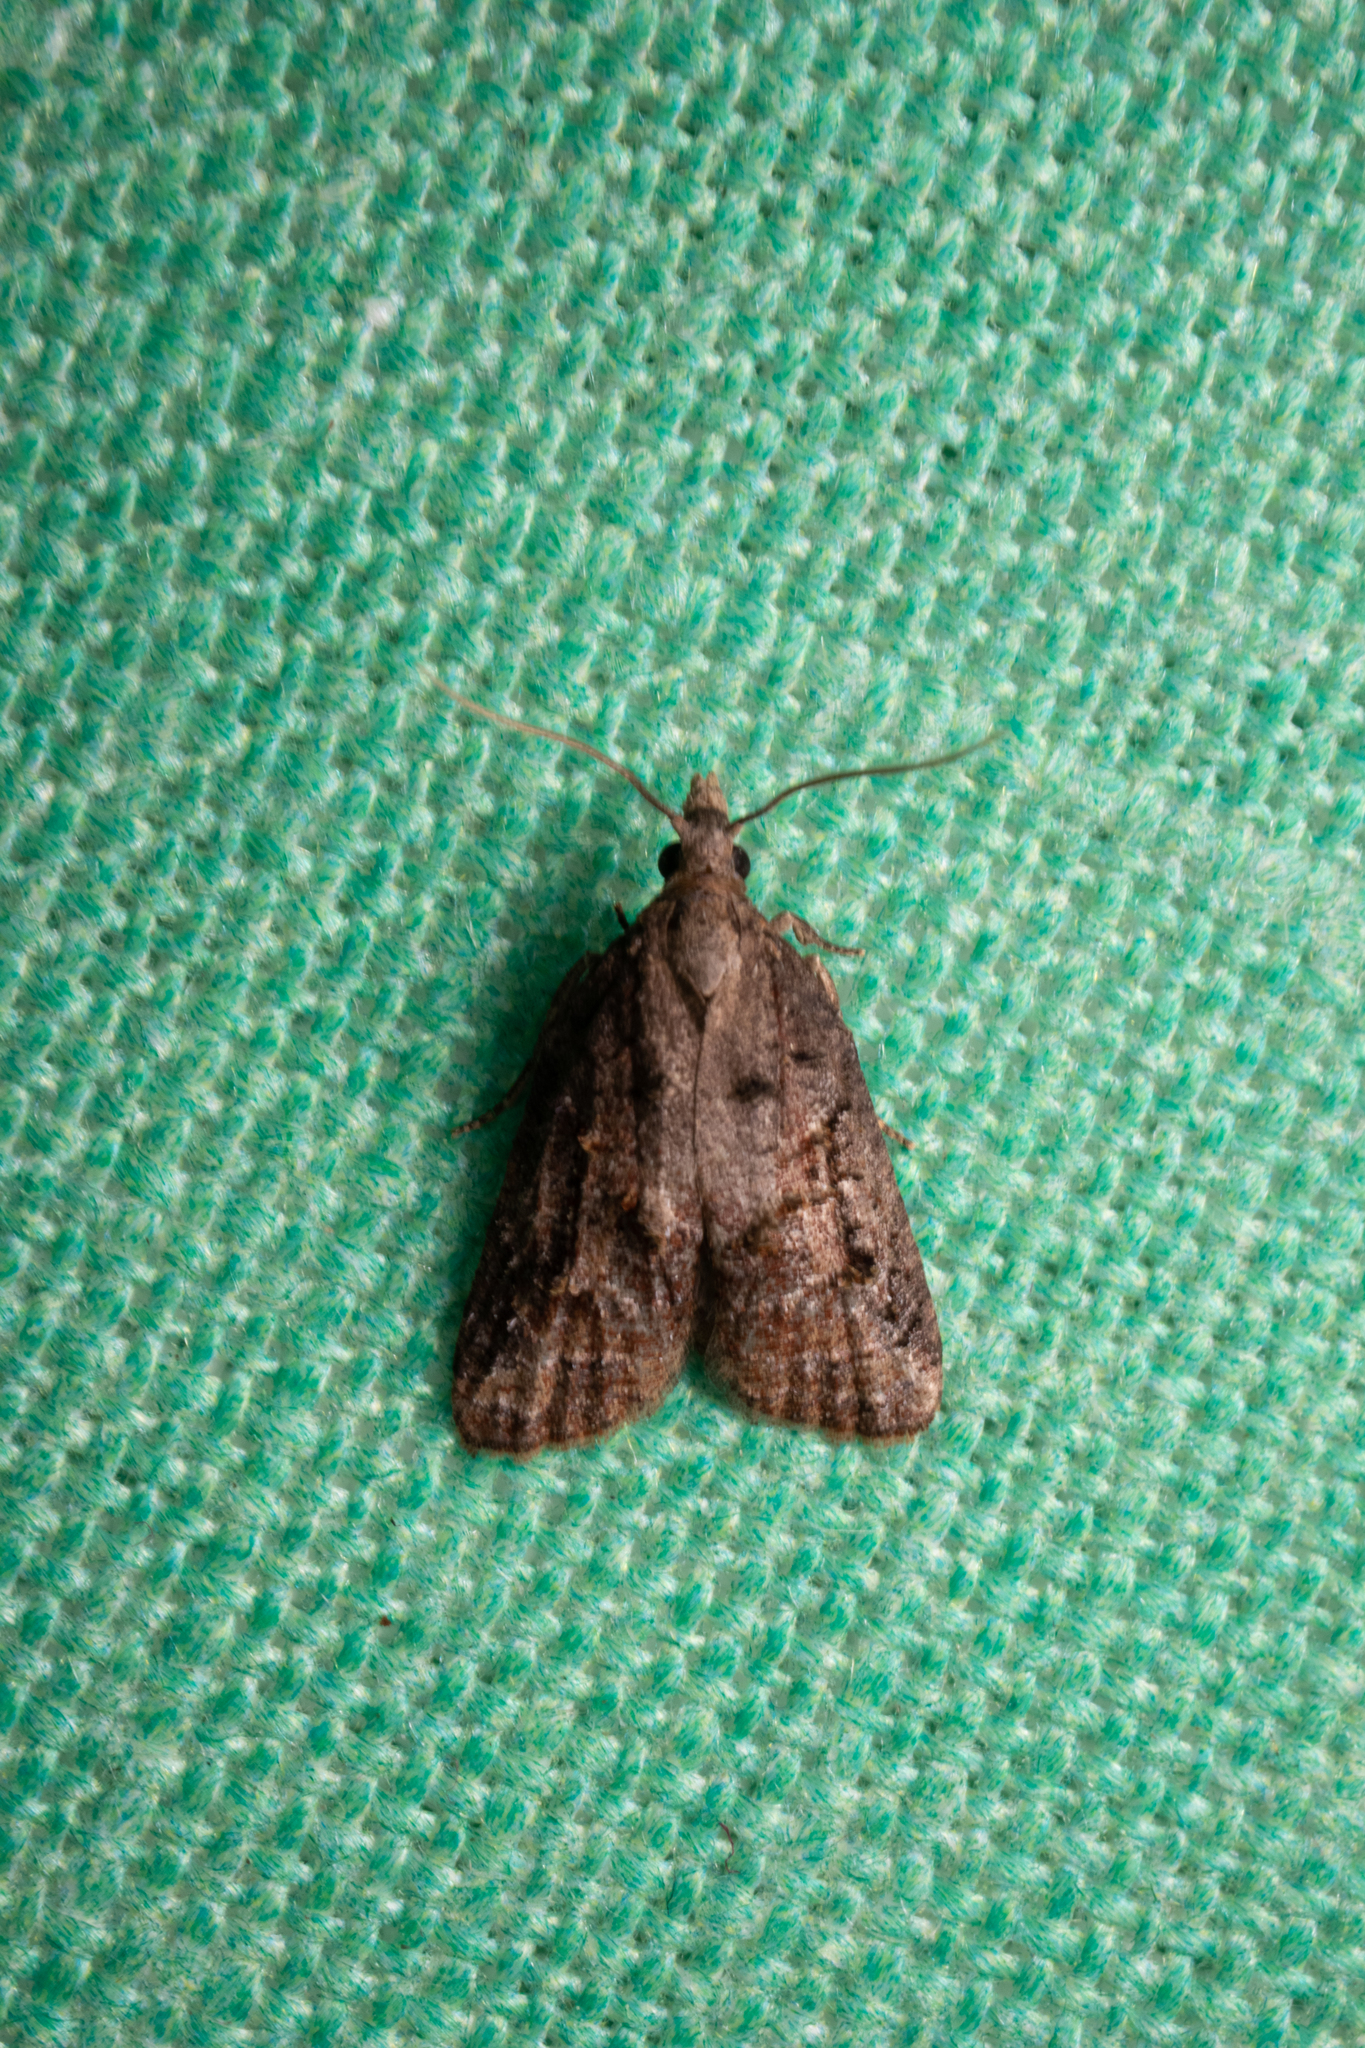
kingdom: Animalia
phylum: Arthropoda
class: Insecta
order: Lepidoptera
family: Tortricidae
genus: Platynota
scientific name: Platynota idaeusalis
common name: Tufted apple bud moth
